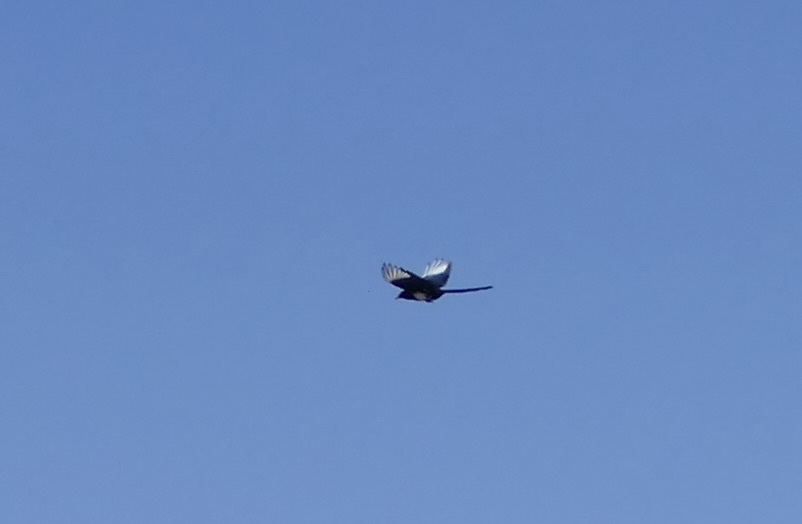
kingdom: Animalia
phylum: Chordata
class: Aves
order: Passeriformes
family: Corvidae
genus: Pica
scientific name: Pica hudsonia
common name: Black-billed magpie
